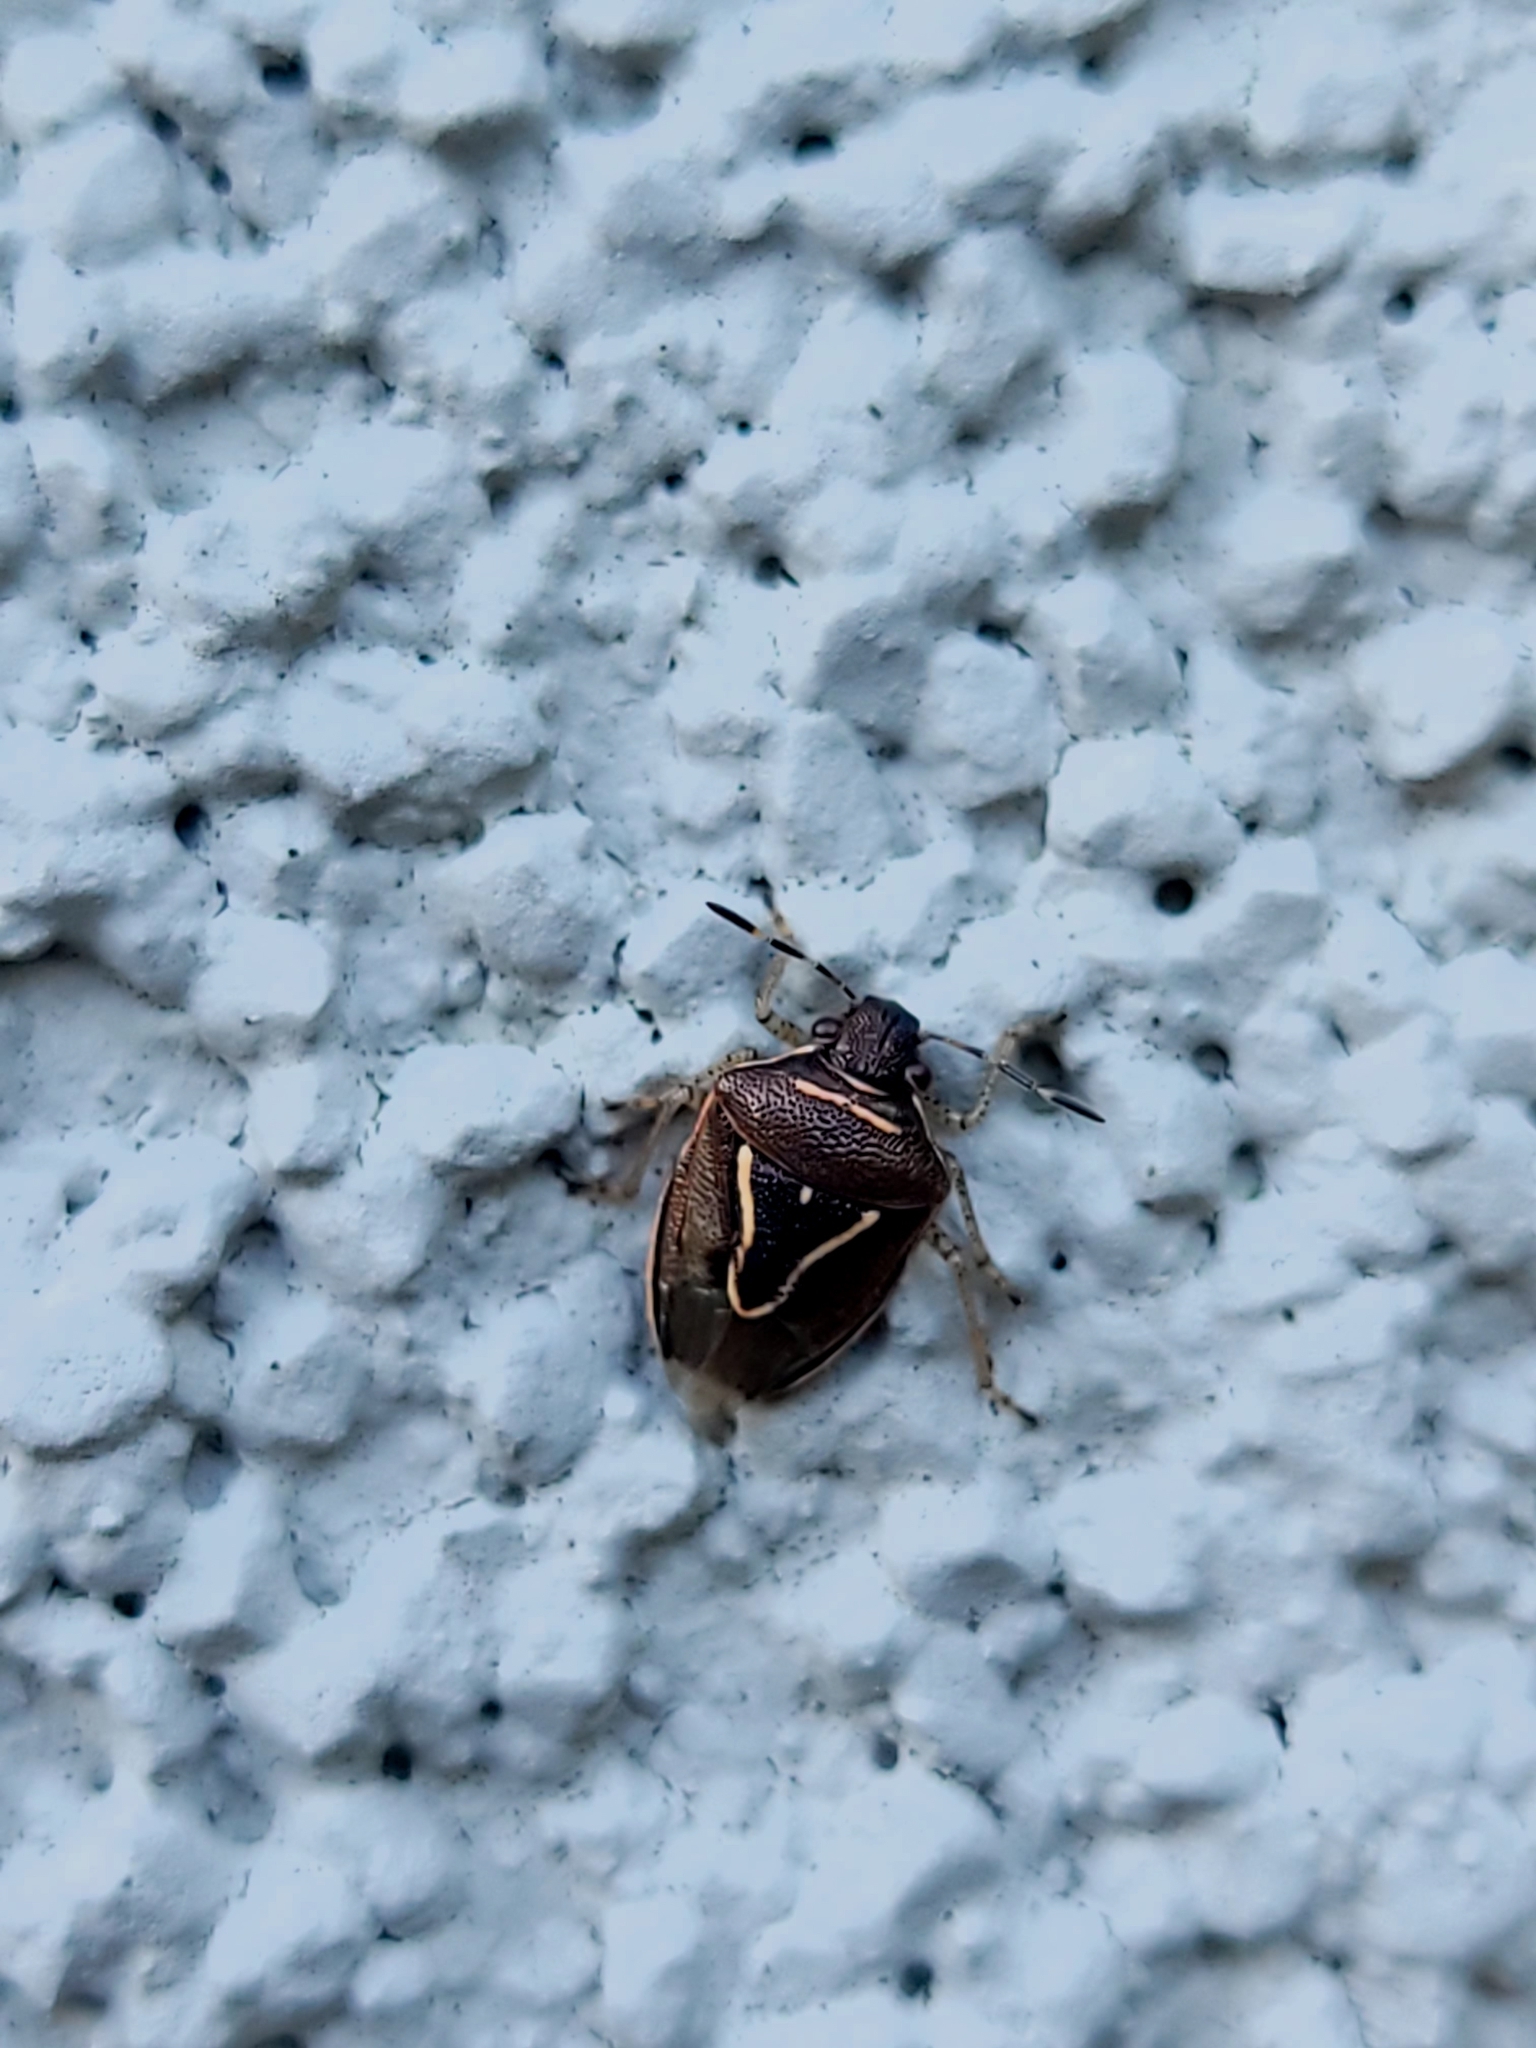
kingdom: Animalia
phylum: Arthropoda
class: Insecta
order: Hemiptera
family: Pentatomidae
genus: Mormidea
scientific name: Mormidea lugens
